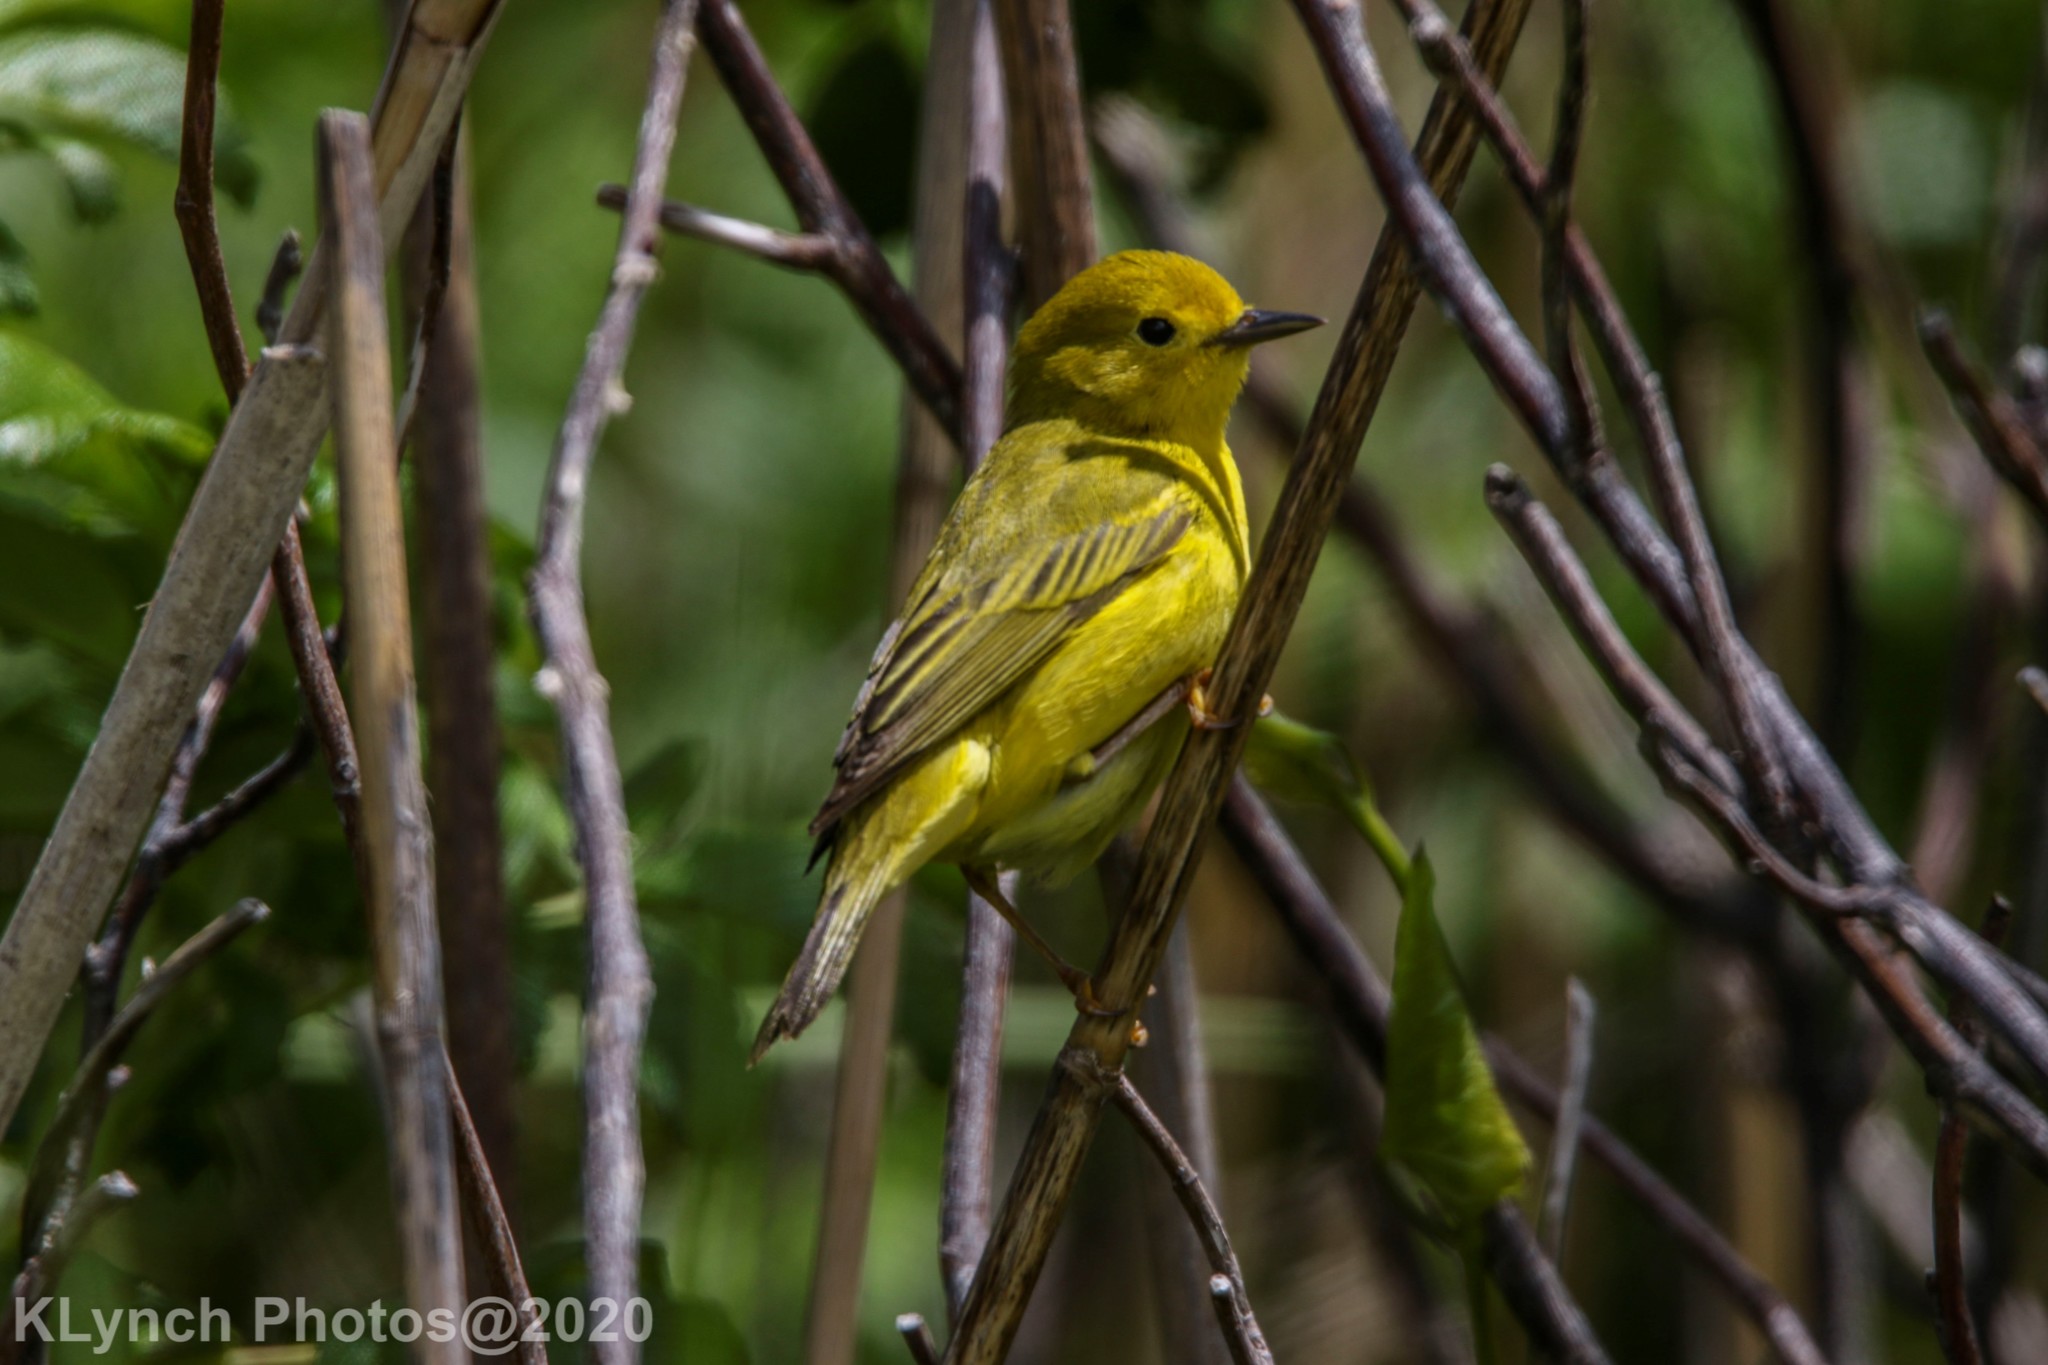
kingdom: Animalia
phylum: Chordata
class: Aves
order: Passeriformes
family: Parulidae
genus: Setophaga
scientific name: Setophaga petechia
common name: Yellow warbler
